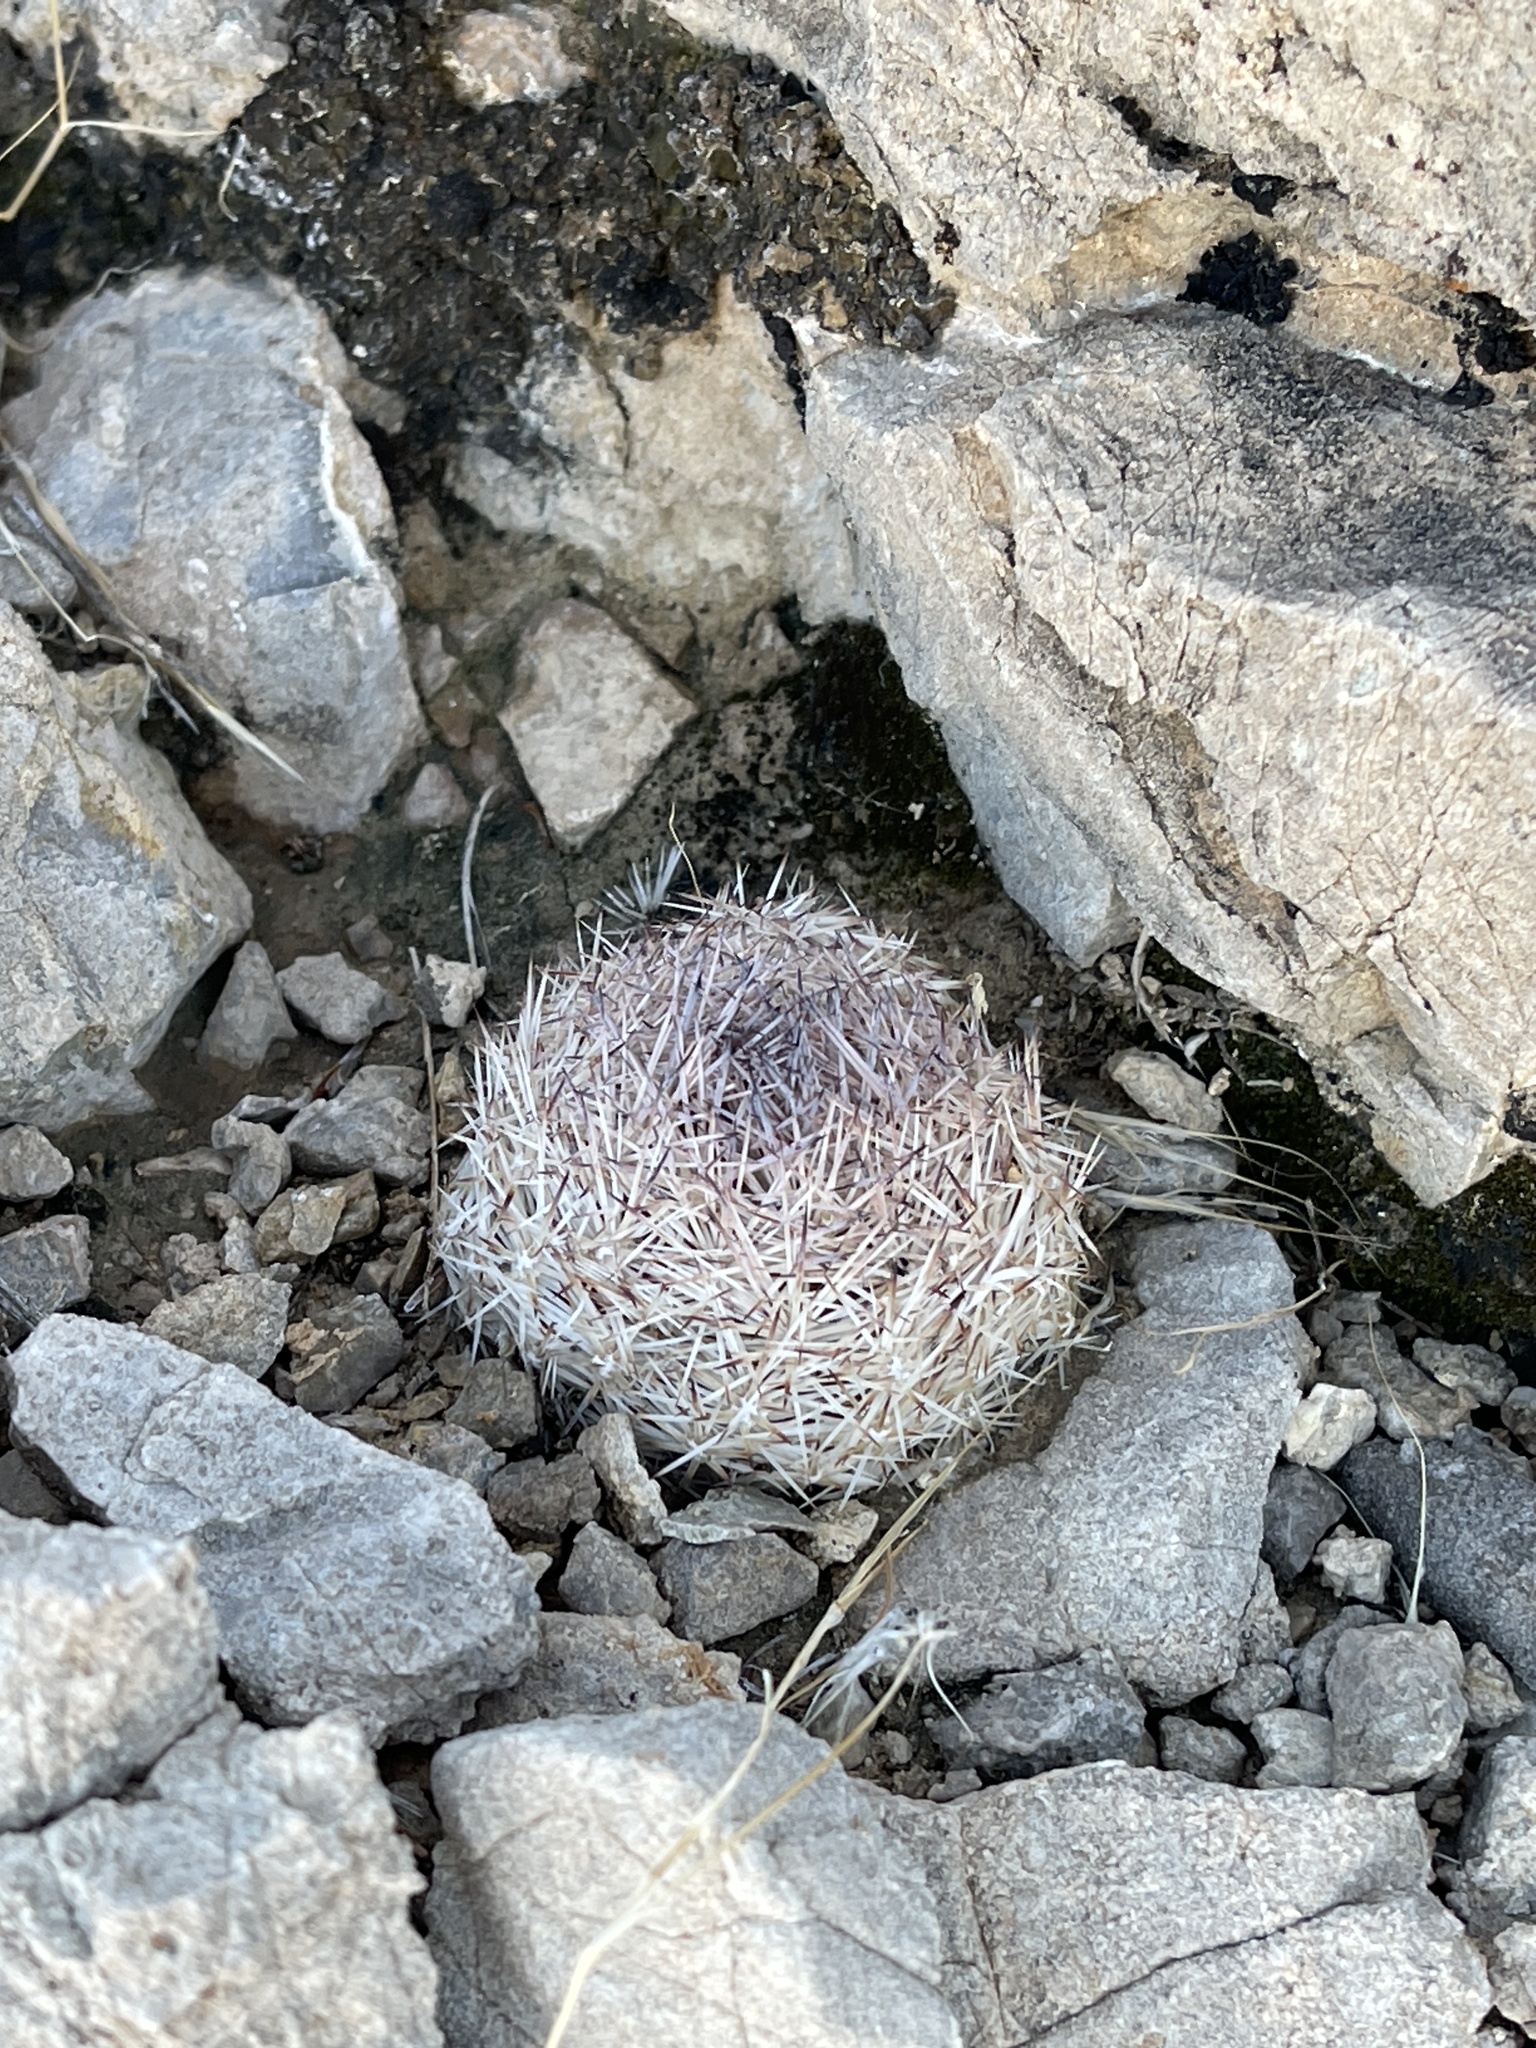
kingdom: Plantae
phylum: Tracheophyta
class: Magnoliopsida
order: Caryophyllales
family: Cactaceae
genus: Pelecyphora
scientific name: Pelecyphora dasyacantha
